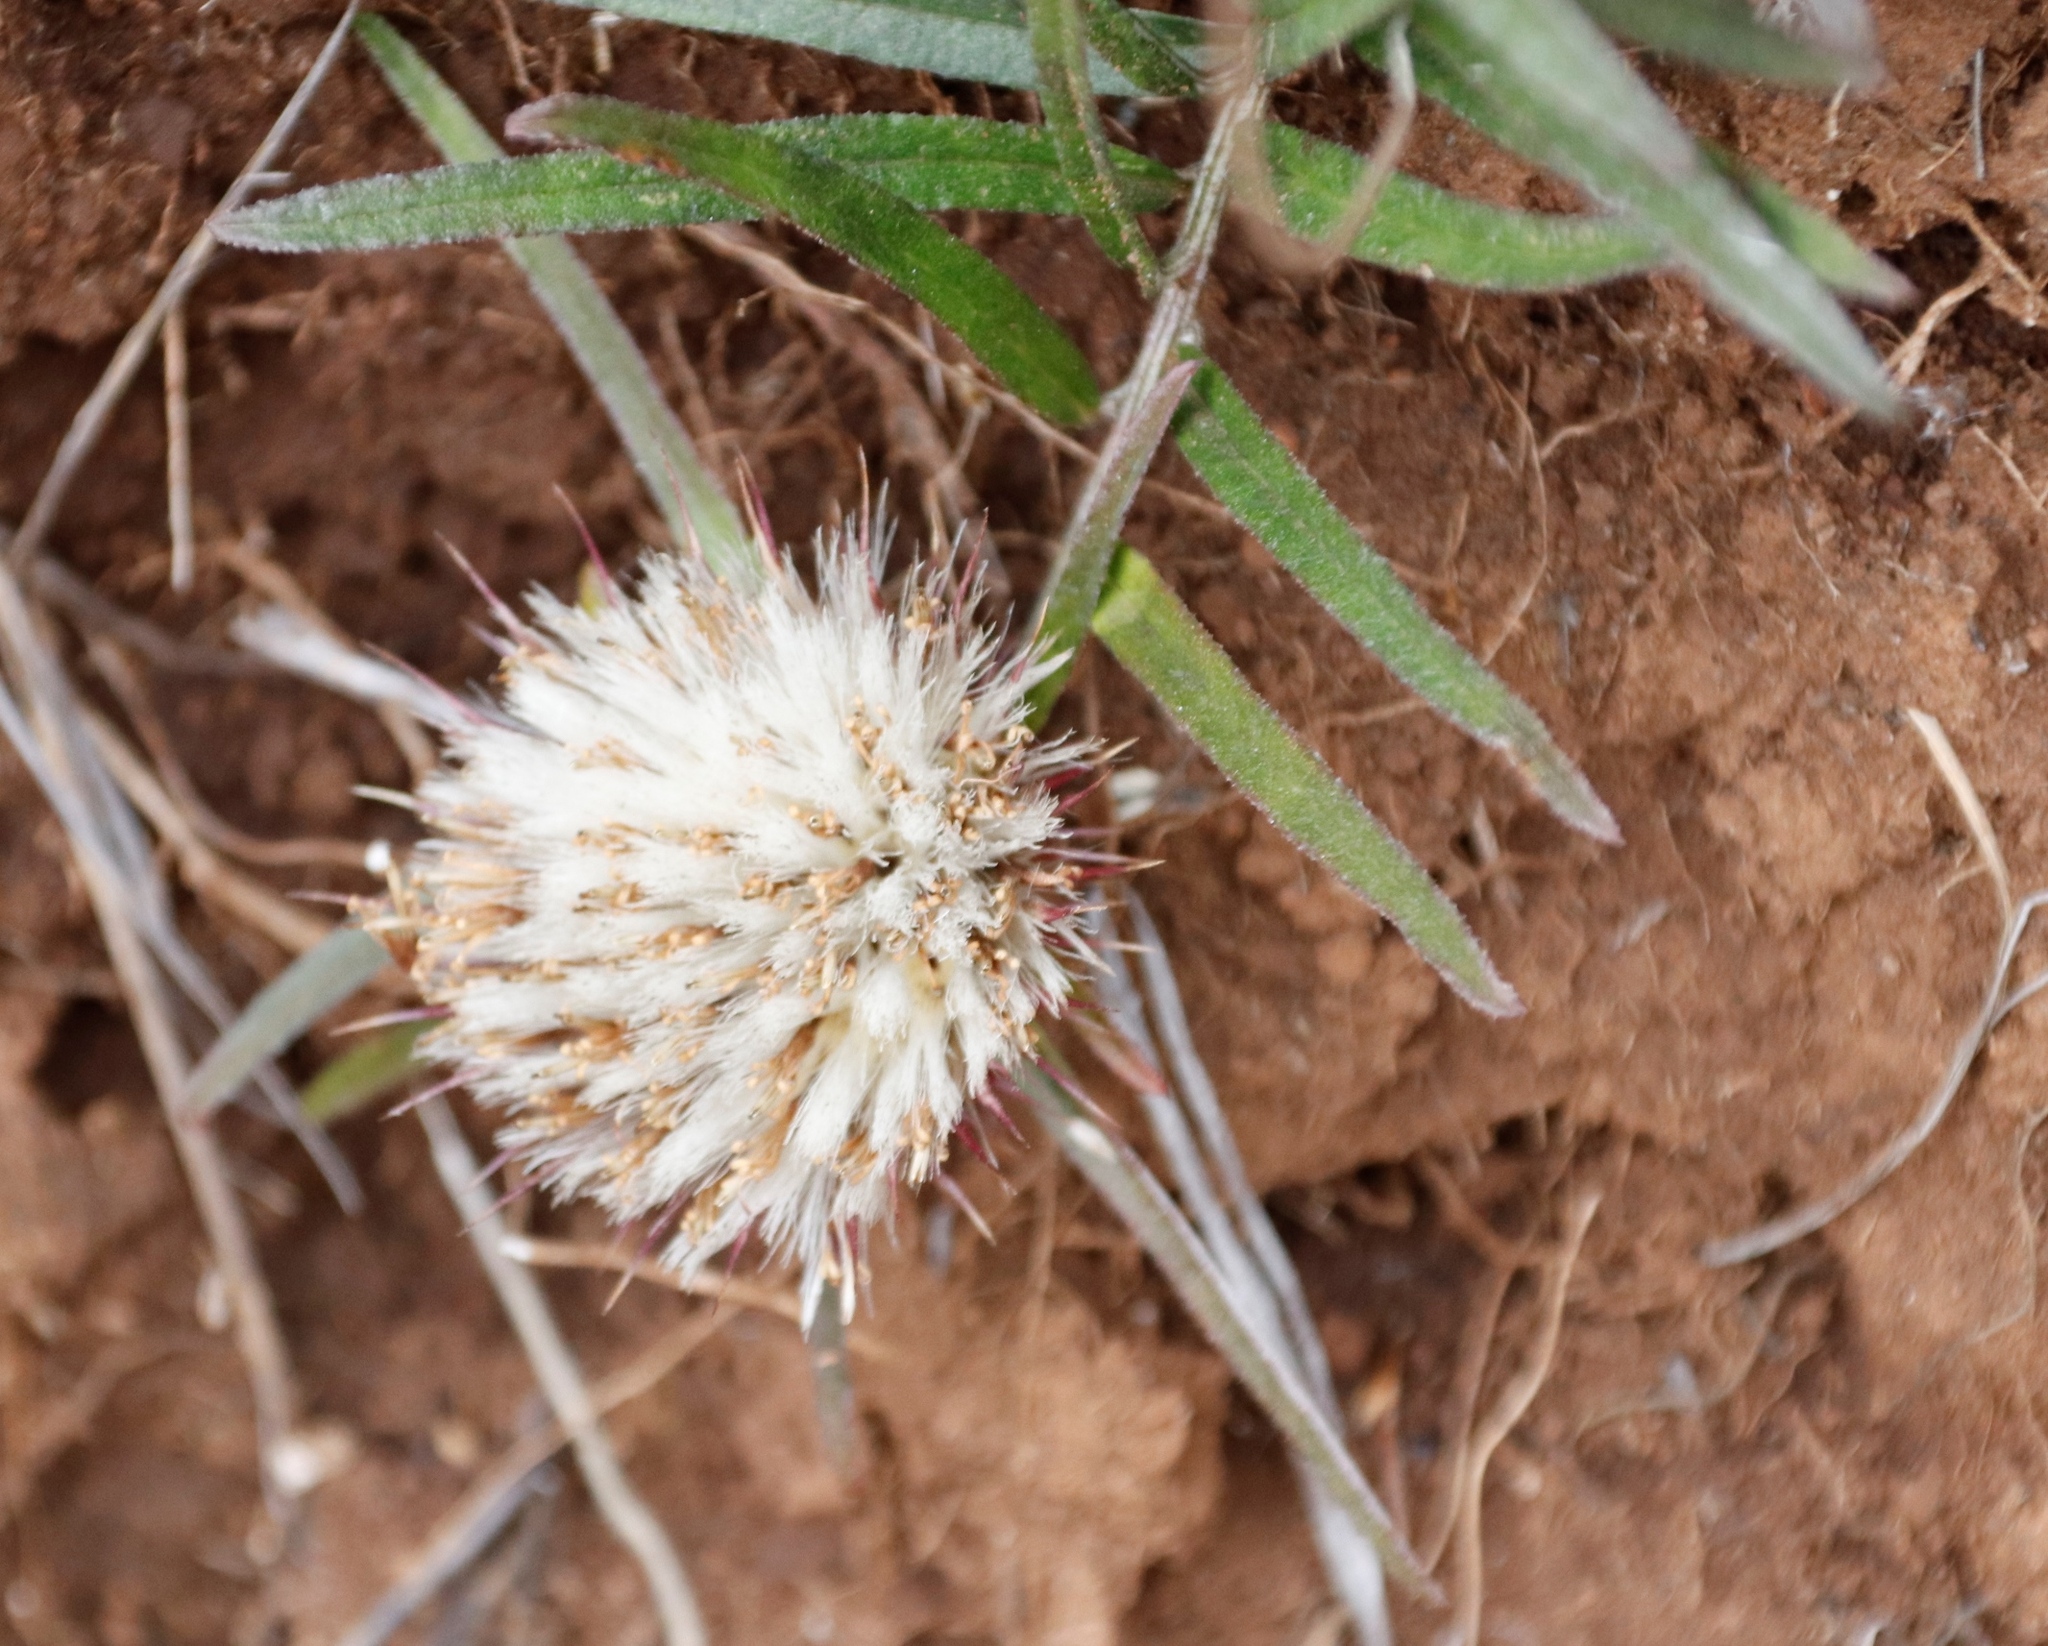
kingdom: Plantae
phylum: Tracheophyta
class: Magnoliopsida
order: Asterales
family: Asteraceae
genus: Dicoma
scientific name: Dicoma anomala
